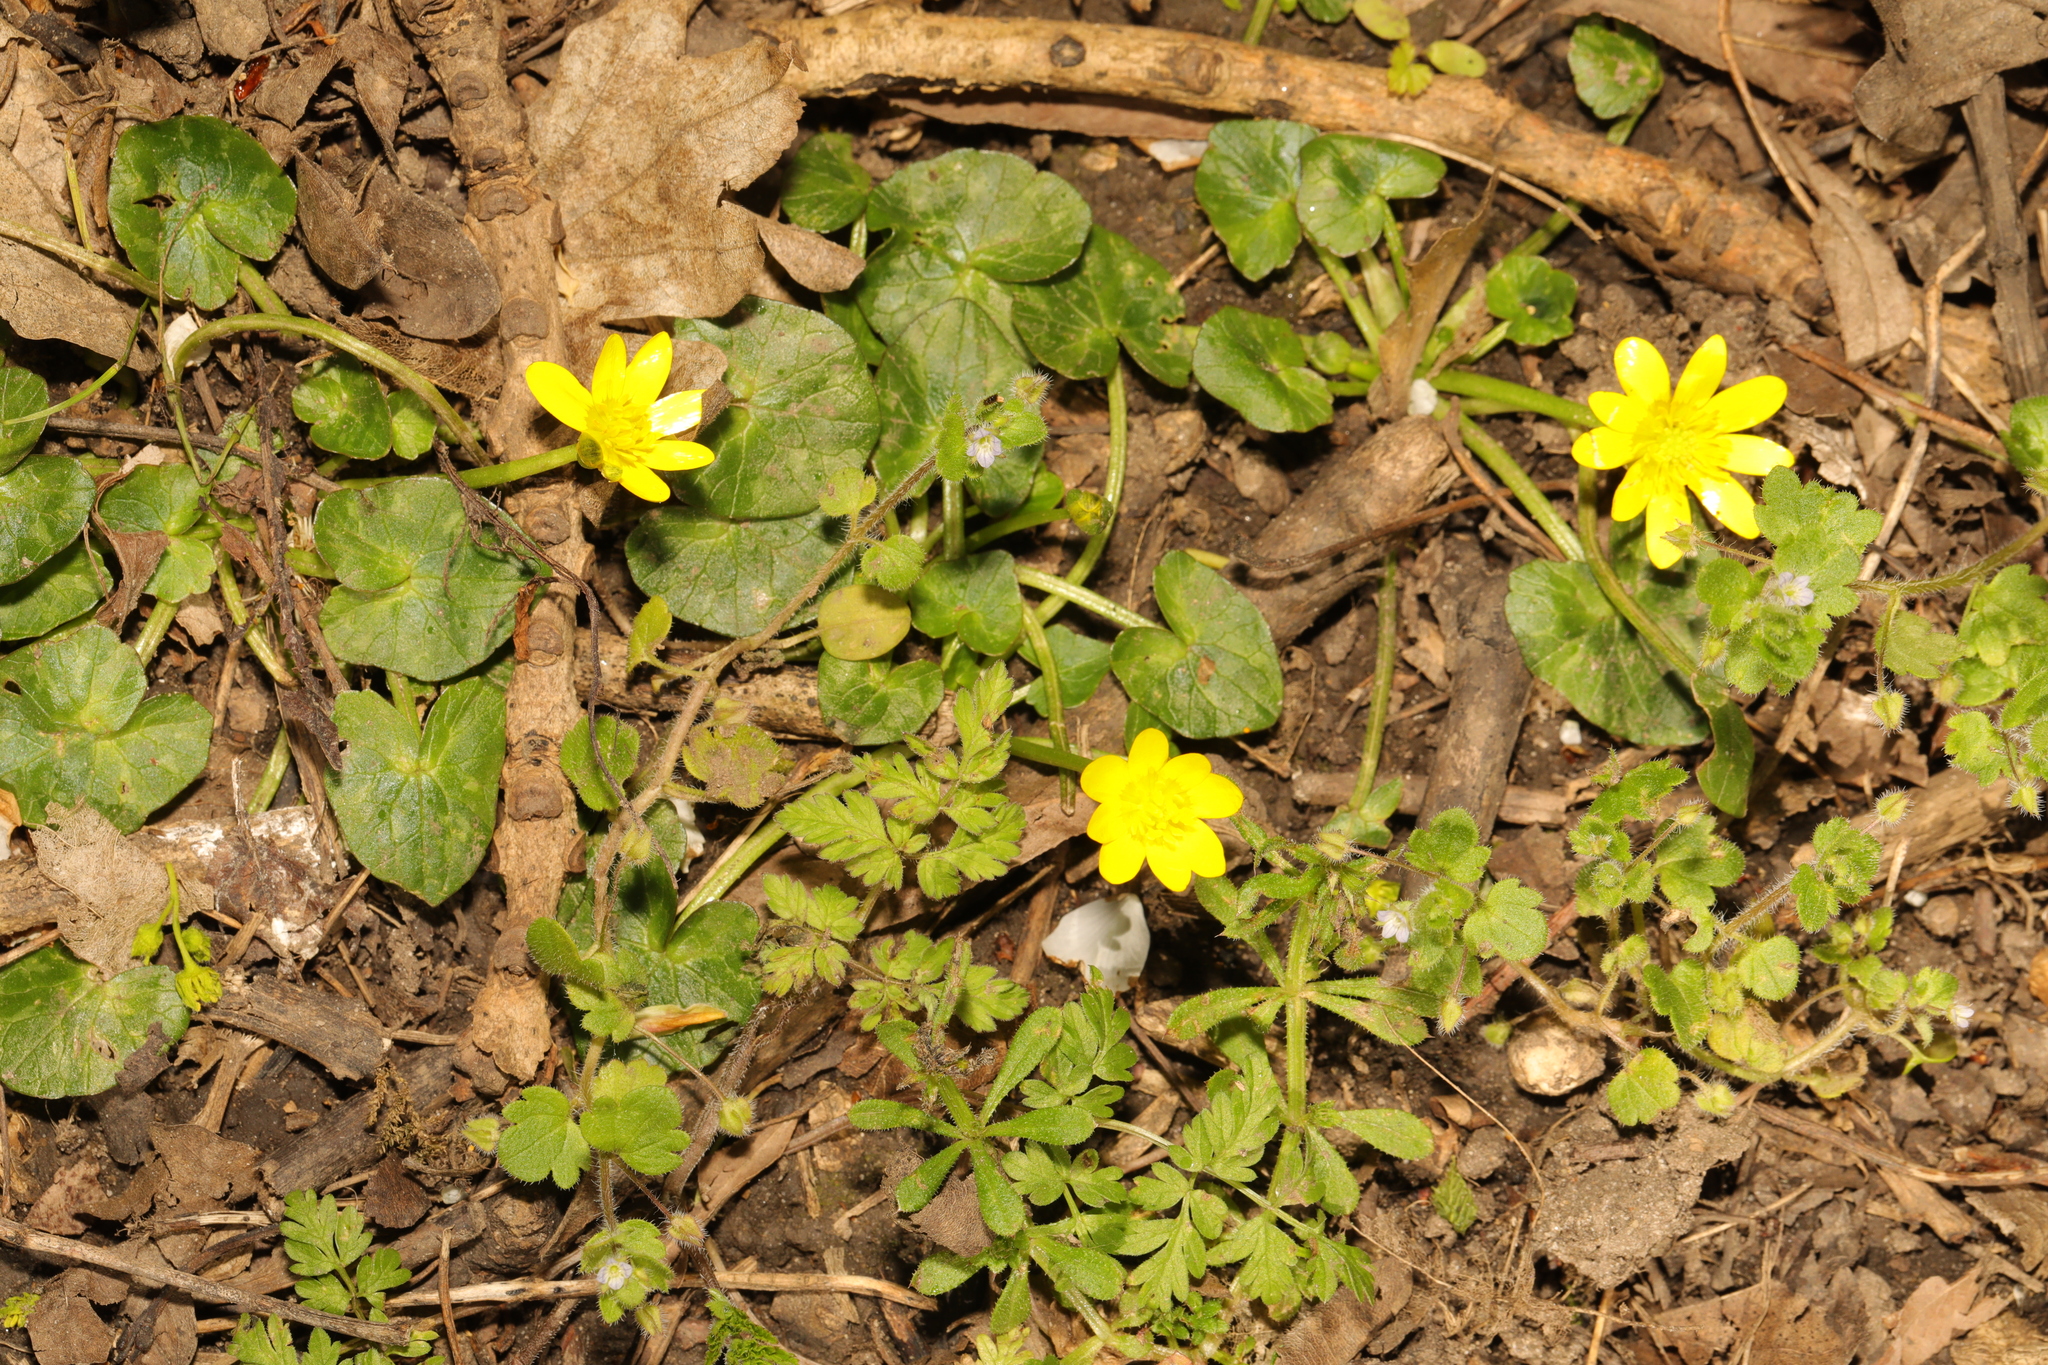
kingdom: Plantae
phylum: Tracheophyta
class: Magnoliopsida
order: Ranunculales
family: Ranunculaceae
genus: Ficaria
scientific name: Ficaria verna
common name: Lesser celandine
